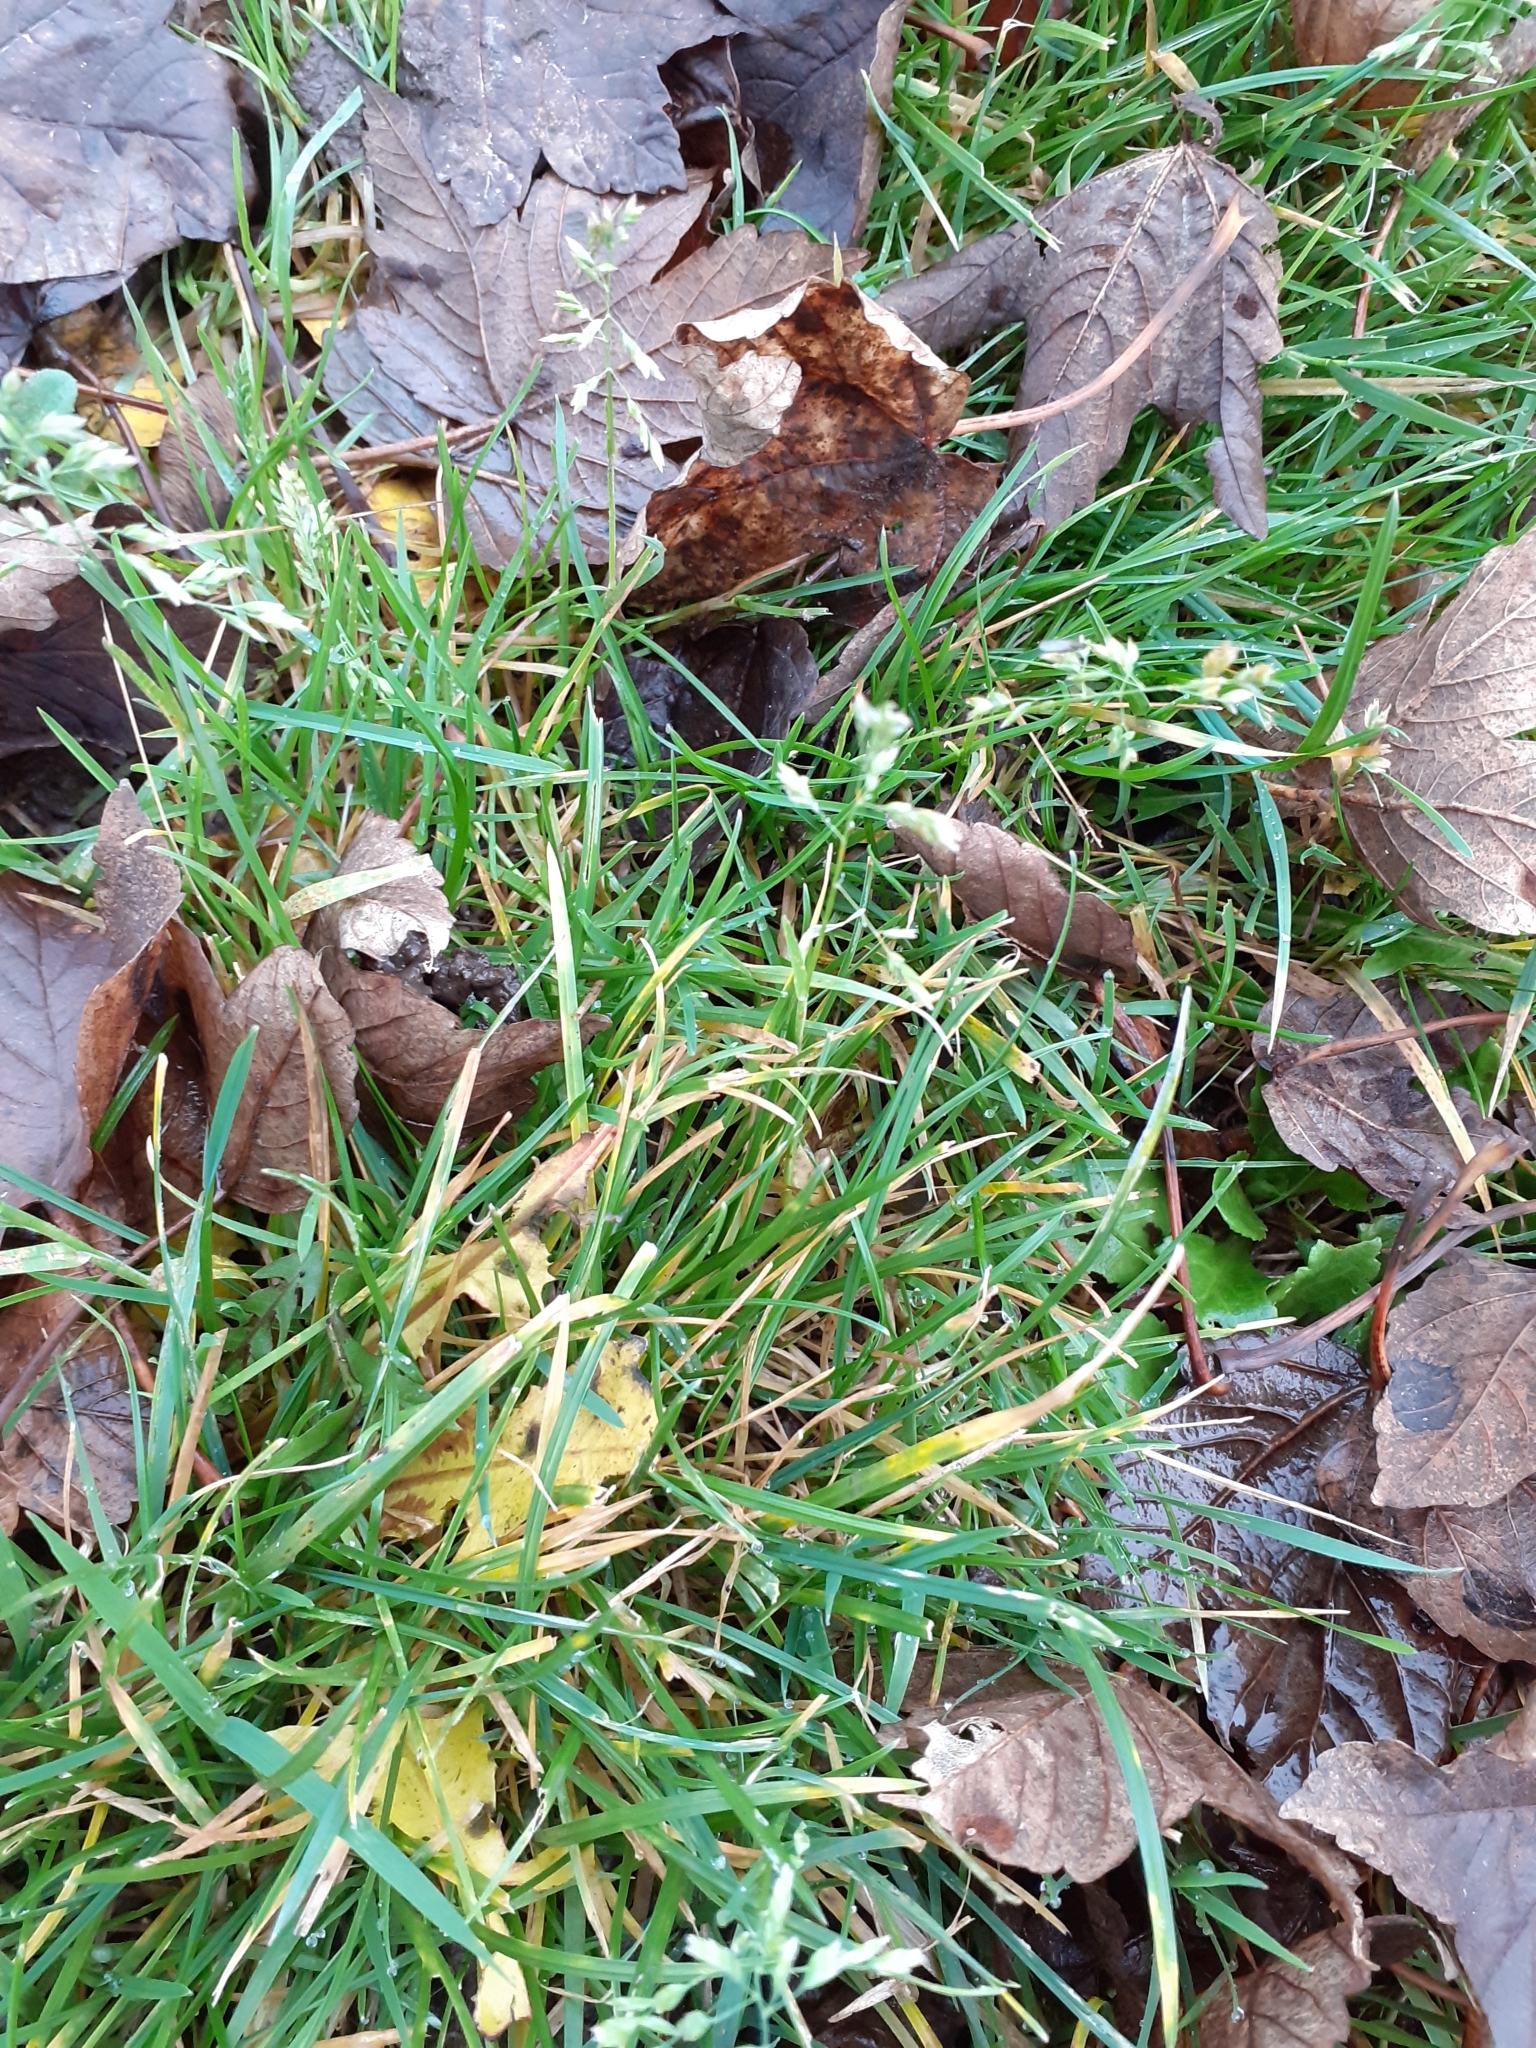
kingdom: Plantae
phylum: Tracheophyta
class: Liliopsida
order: Poales
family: Poaceae
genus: Poa
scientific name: Poa annua
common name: Annual bluegrass
